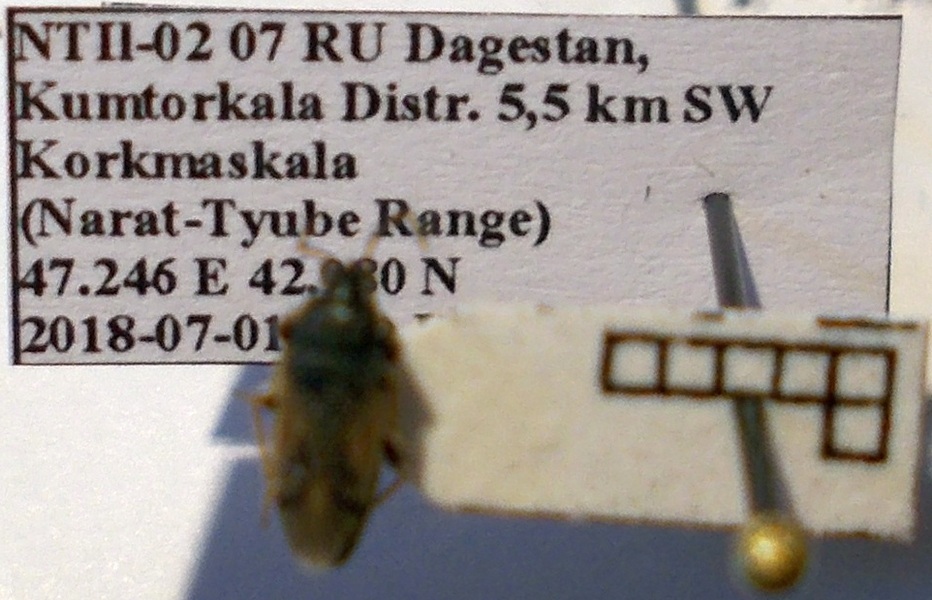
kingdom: Animalia
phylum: Arthropoda
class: Insecta
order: Hemiptera
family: Rhyparochromidae
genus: Megalonotus
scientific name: Megalonotus sabulicola
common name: Seed bug
